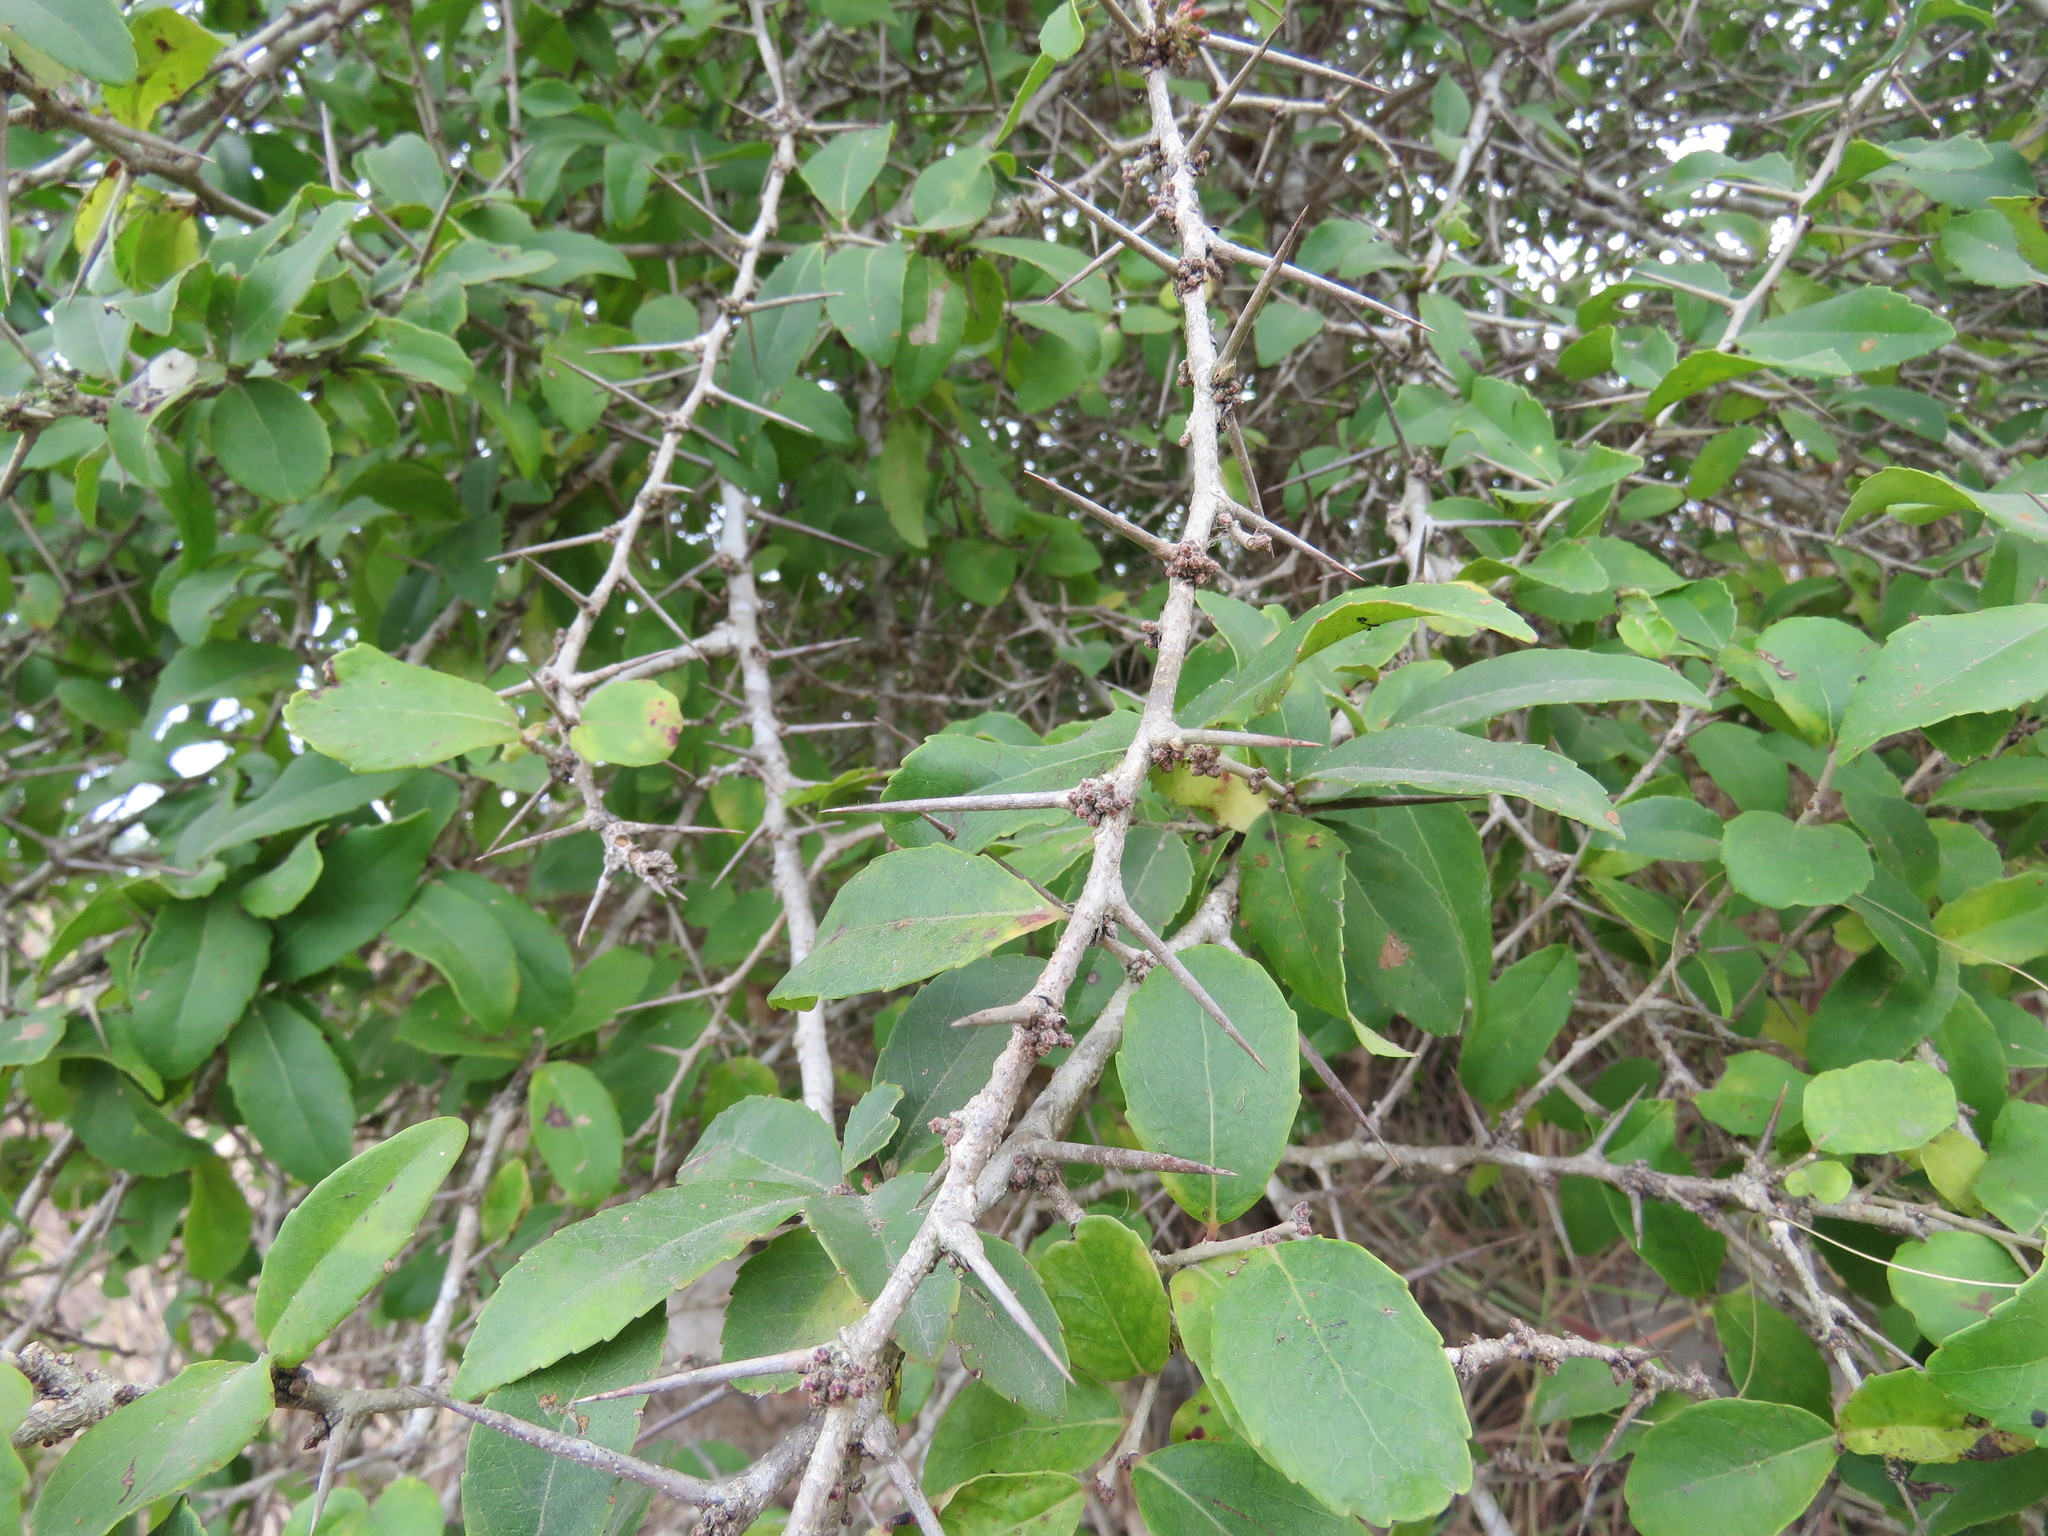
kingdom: Plantae
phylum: Tracheophyta
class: Magnoliopsida
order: Malpighiales
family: Salicaceae
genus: Xylosma
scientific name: Xylosma flexuosa
